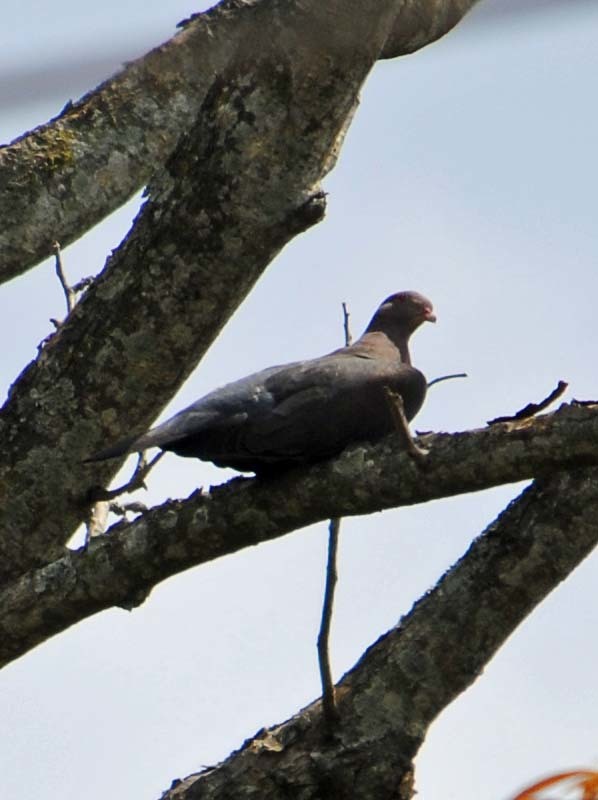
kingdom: Animalia
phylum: Chordata
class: Aves
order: Columbiformes
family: Columbidae
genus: Patagioenas
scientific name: Patagioenas flavirostris
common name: Red-billed pigeon
